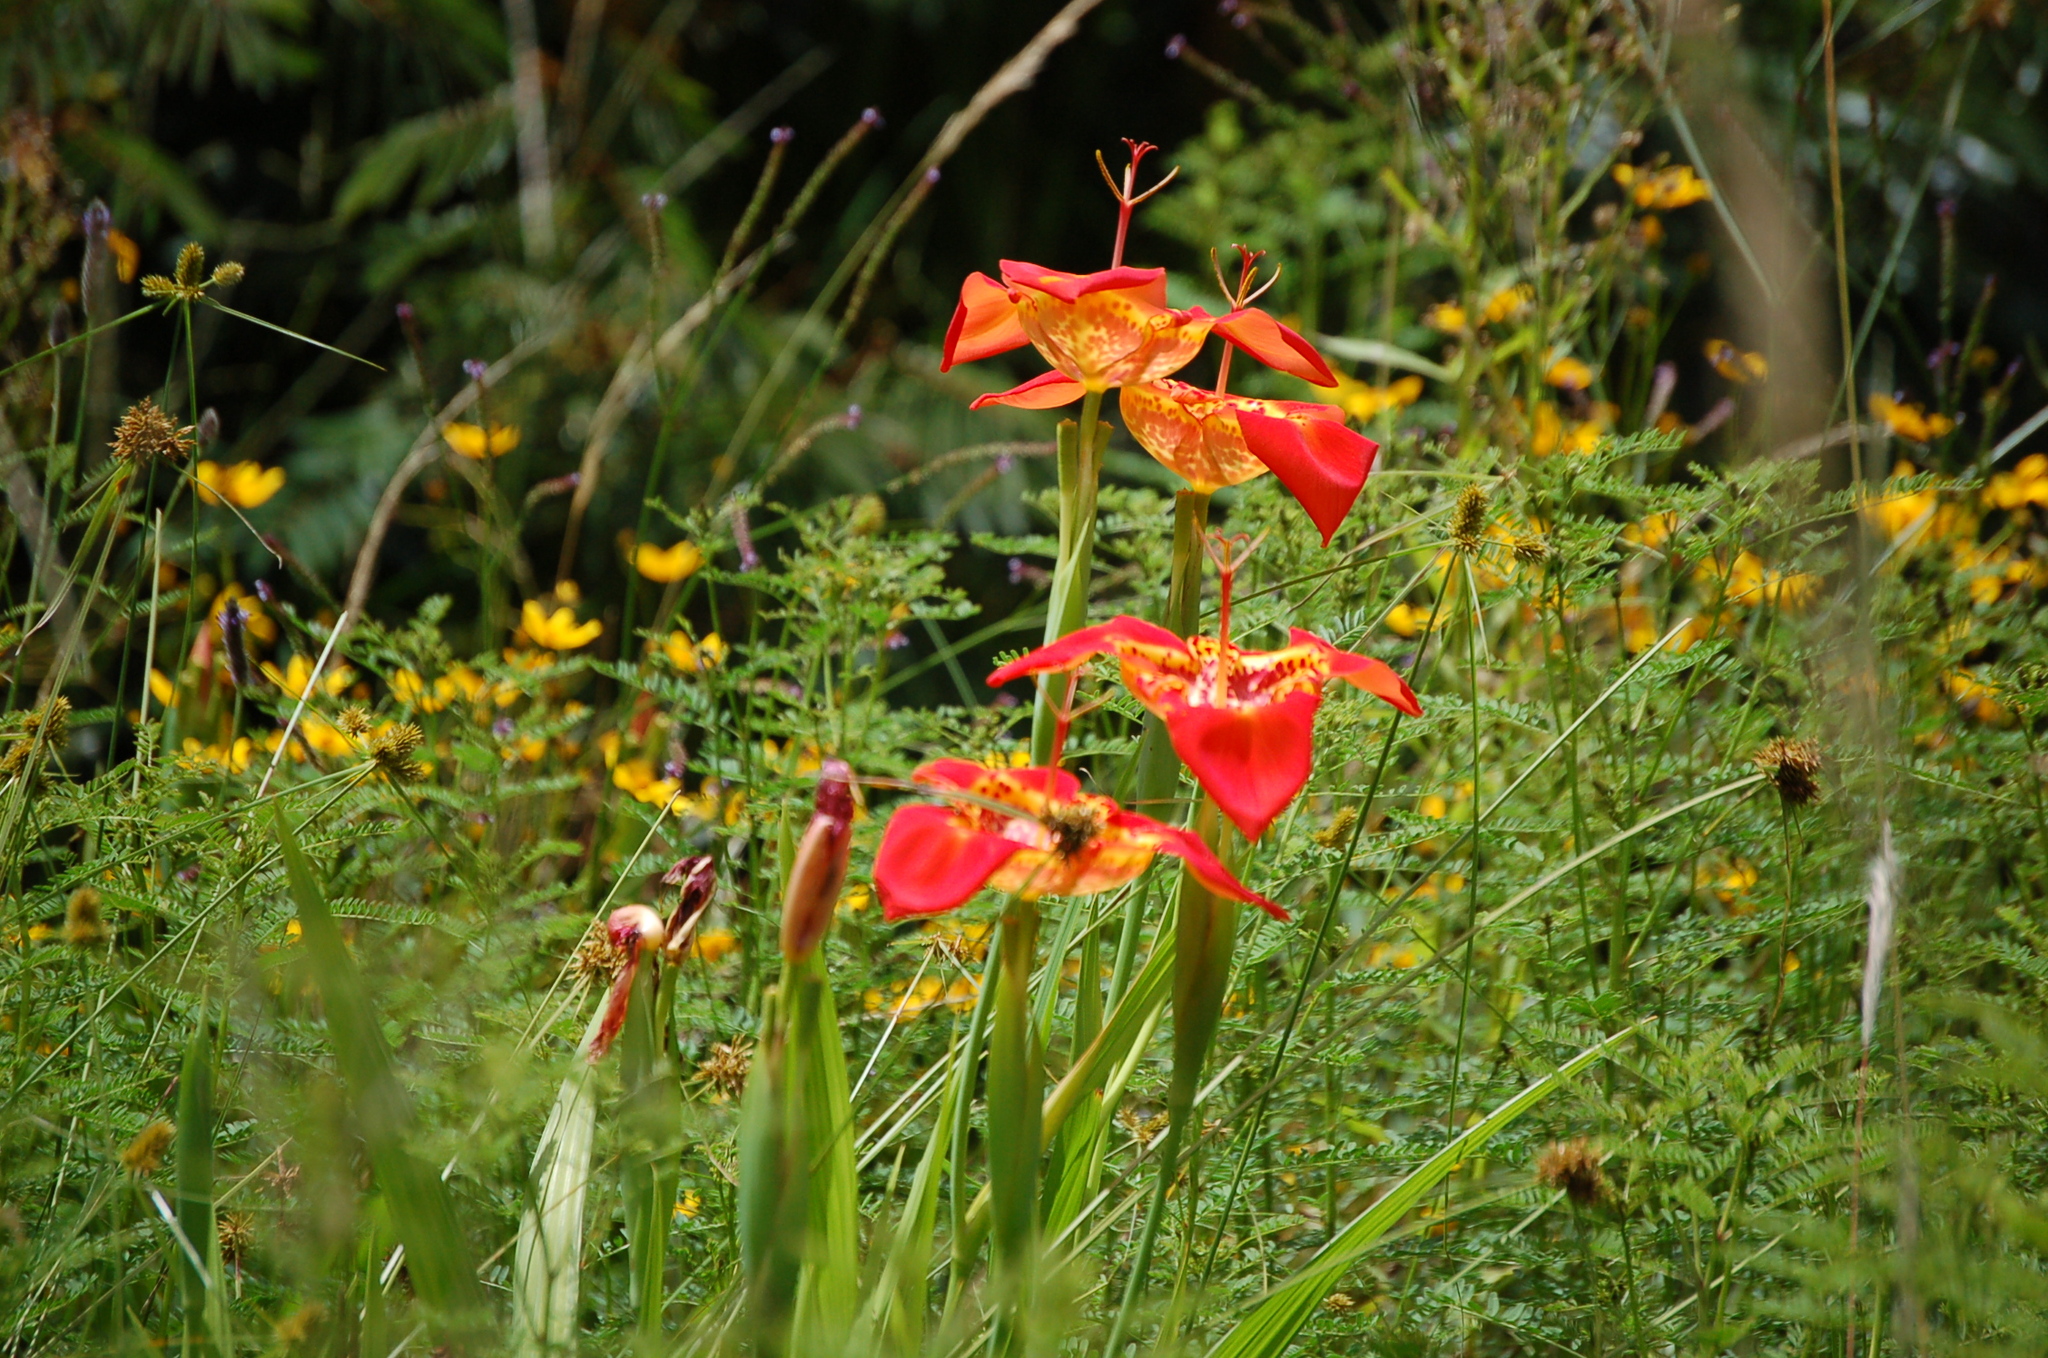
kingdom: Plantae
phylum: Tracheophyta
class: Liliopsida
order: Asparagales
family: Iridaceae
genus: Tigridia
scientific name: Tigridia pavonia
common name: Peacock-flower
